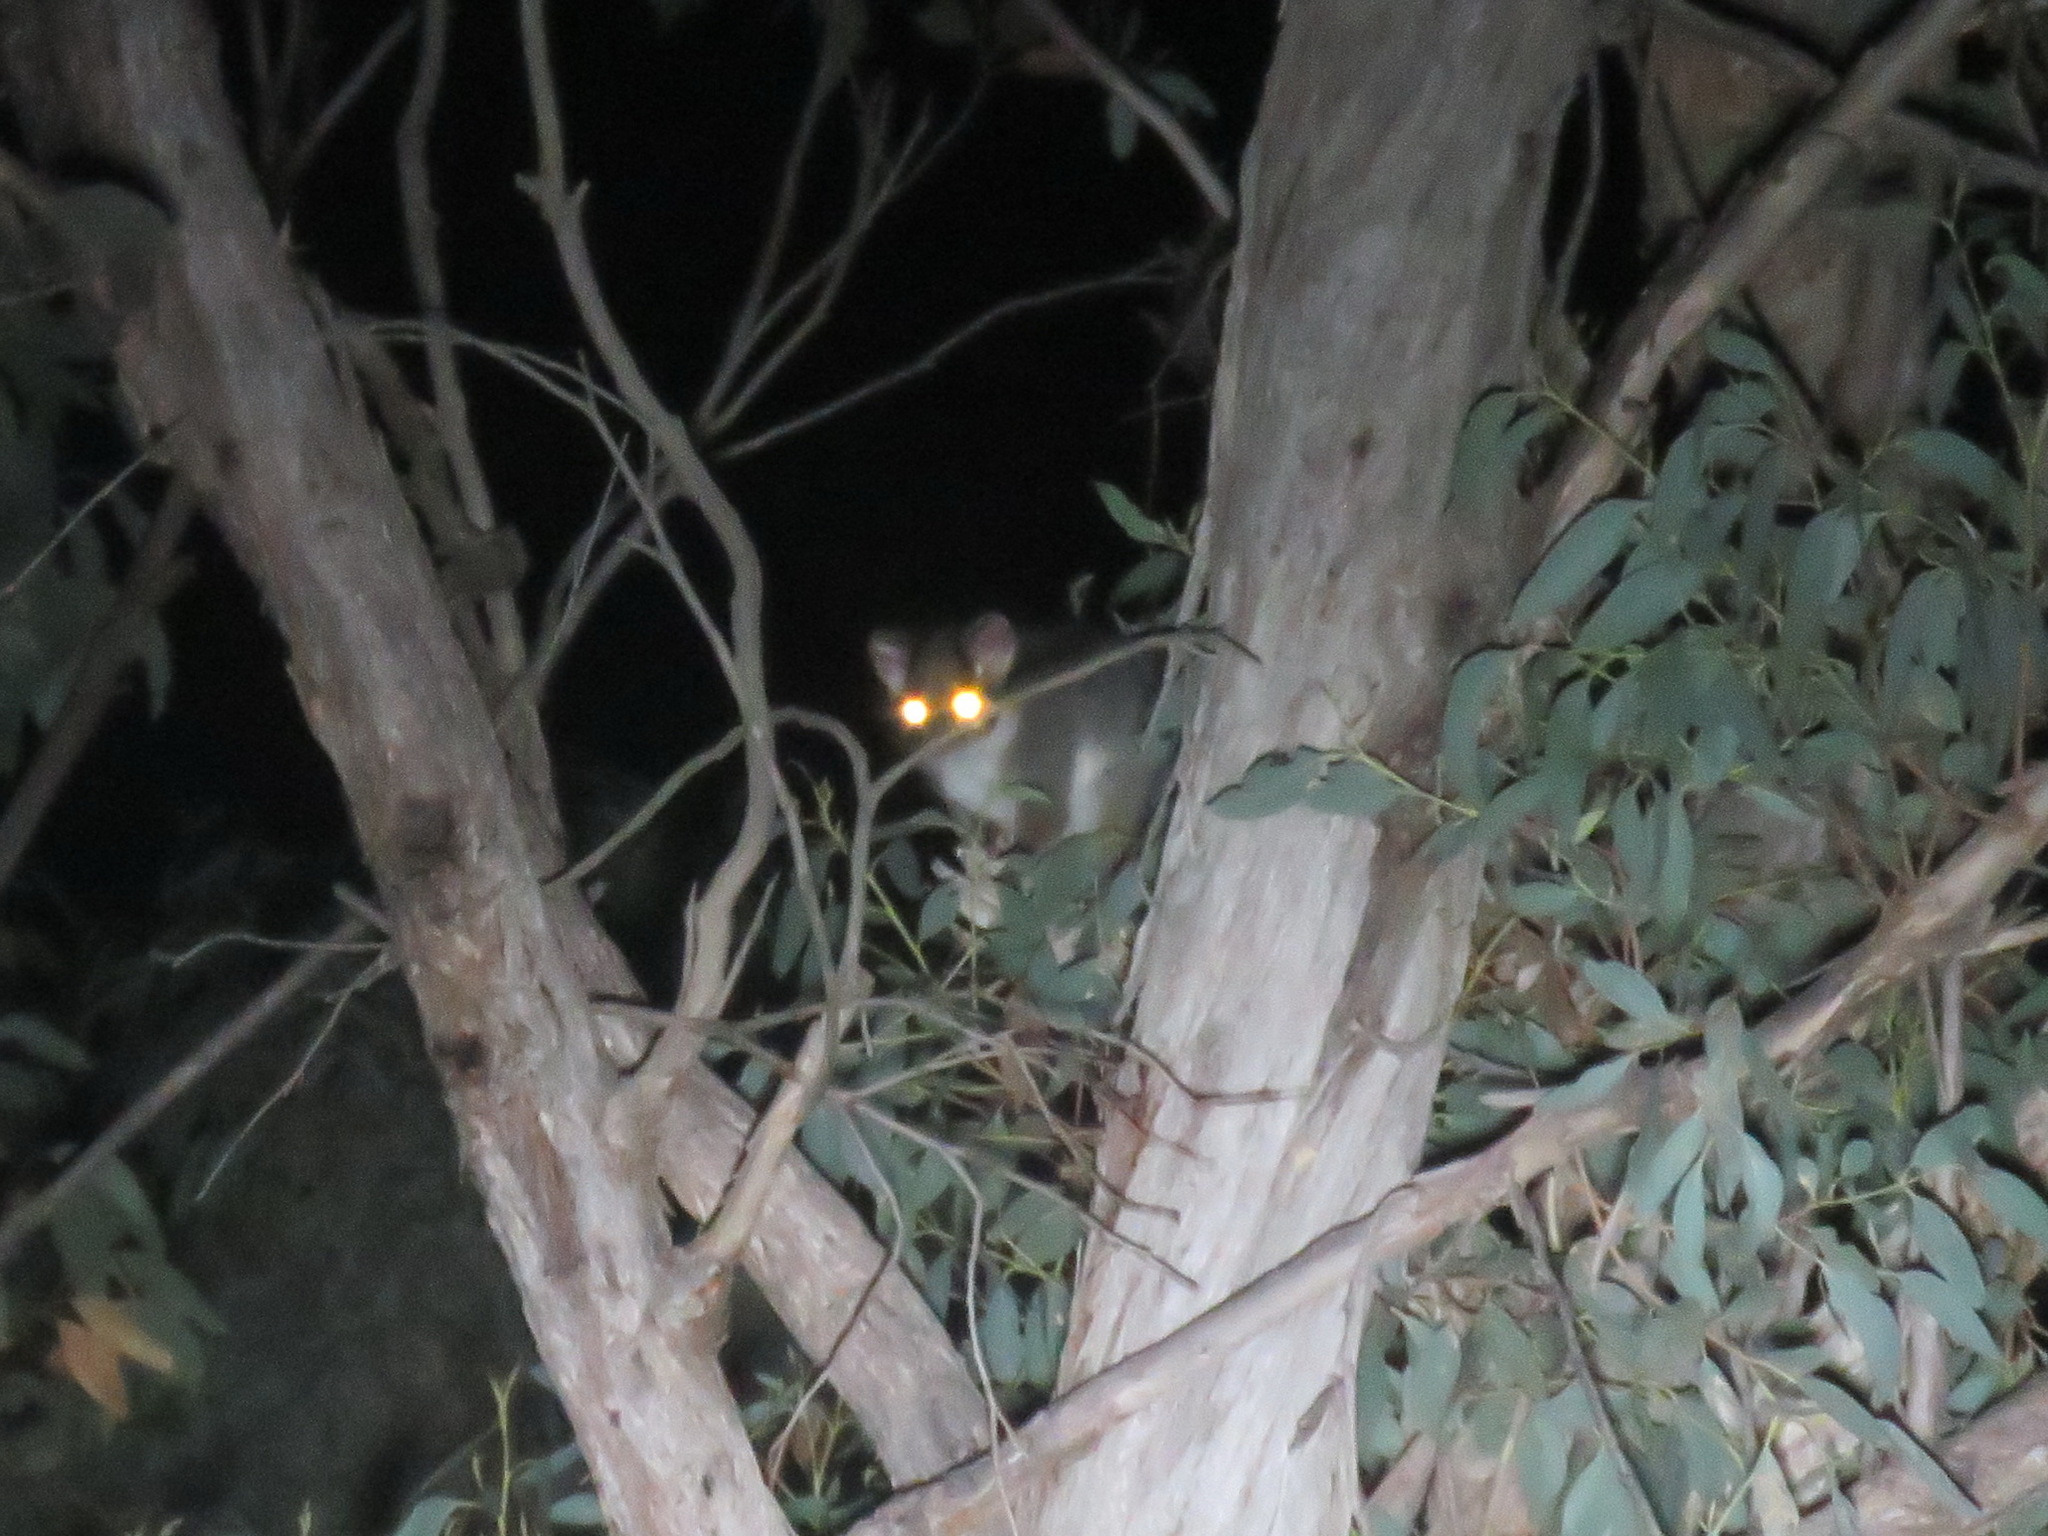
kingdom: Animalia
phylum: Chordata
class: Mammalia
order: Diprotodontia
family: Pseudocheiridae
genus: Pseudocheirus
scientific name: Pseudocheirus peregrinus
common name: Common ringtail possum
